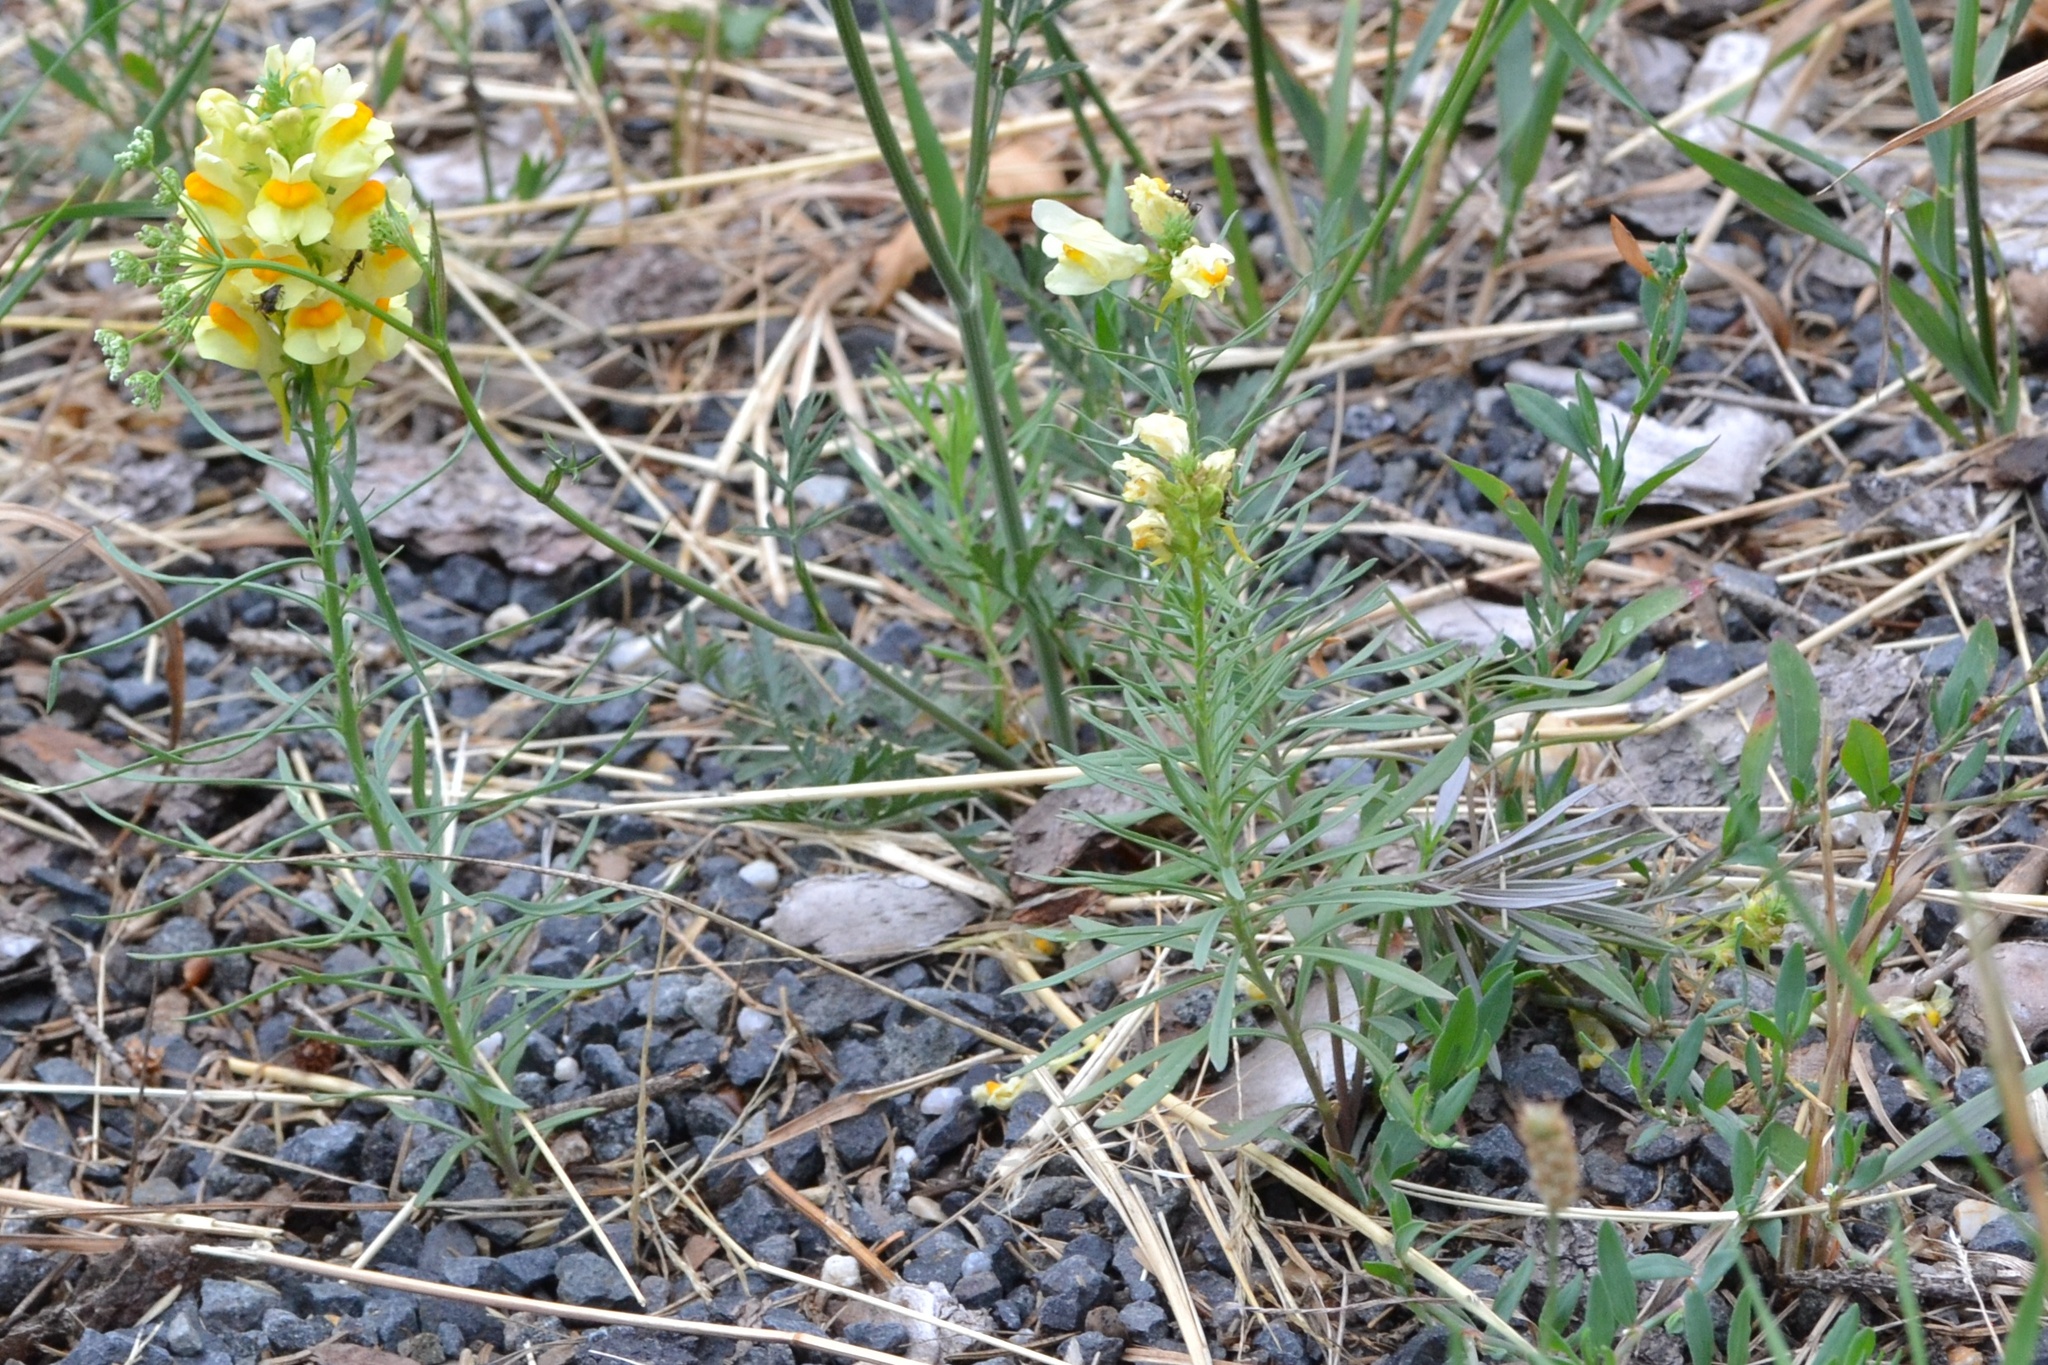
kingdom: Plantae
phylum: Tracheophyta
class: Magnoliopsida
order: Lamiales
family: Plantaginaceae
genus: Linaria
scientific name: Linaria vulgaris
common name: Butter and eggs
